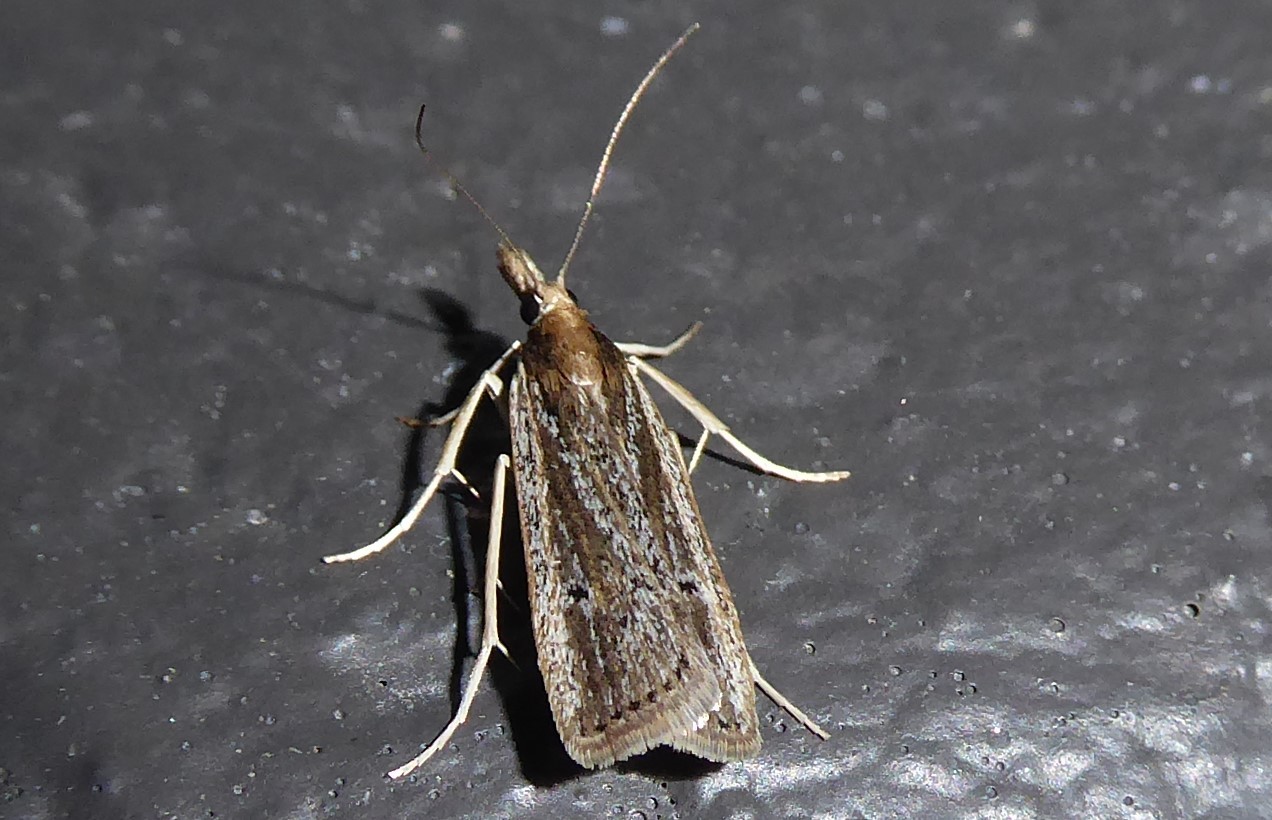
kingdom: Animalia
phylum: Arthropoda
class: Insecta
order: Lepidoptera
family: Crambidae
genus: Eudonia
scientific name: Eudonia sabulosella
